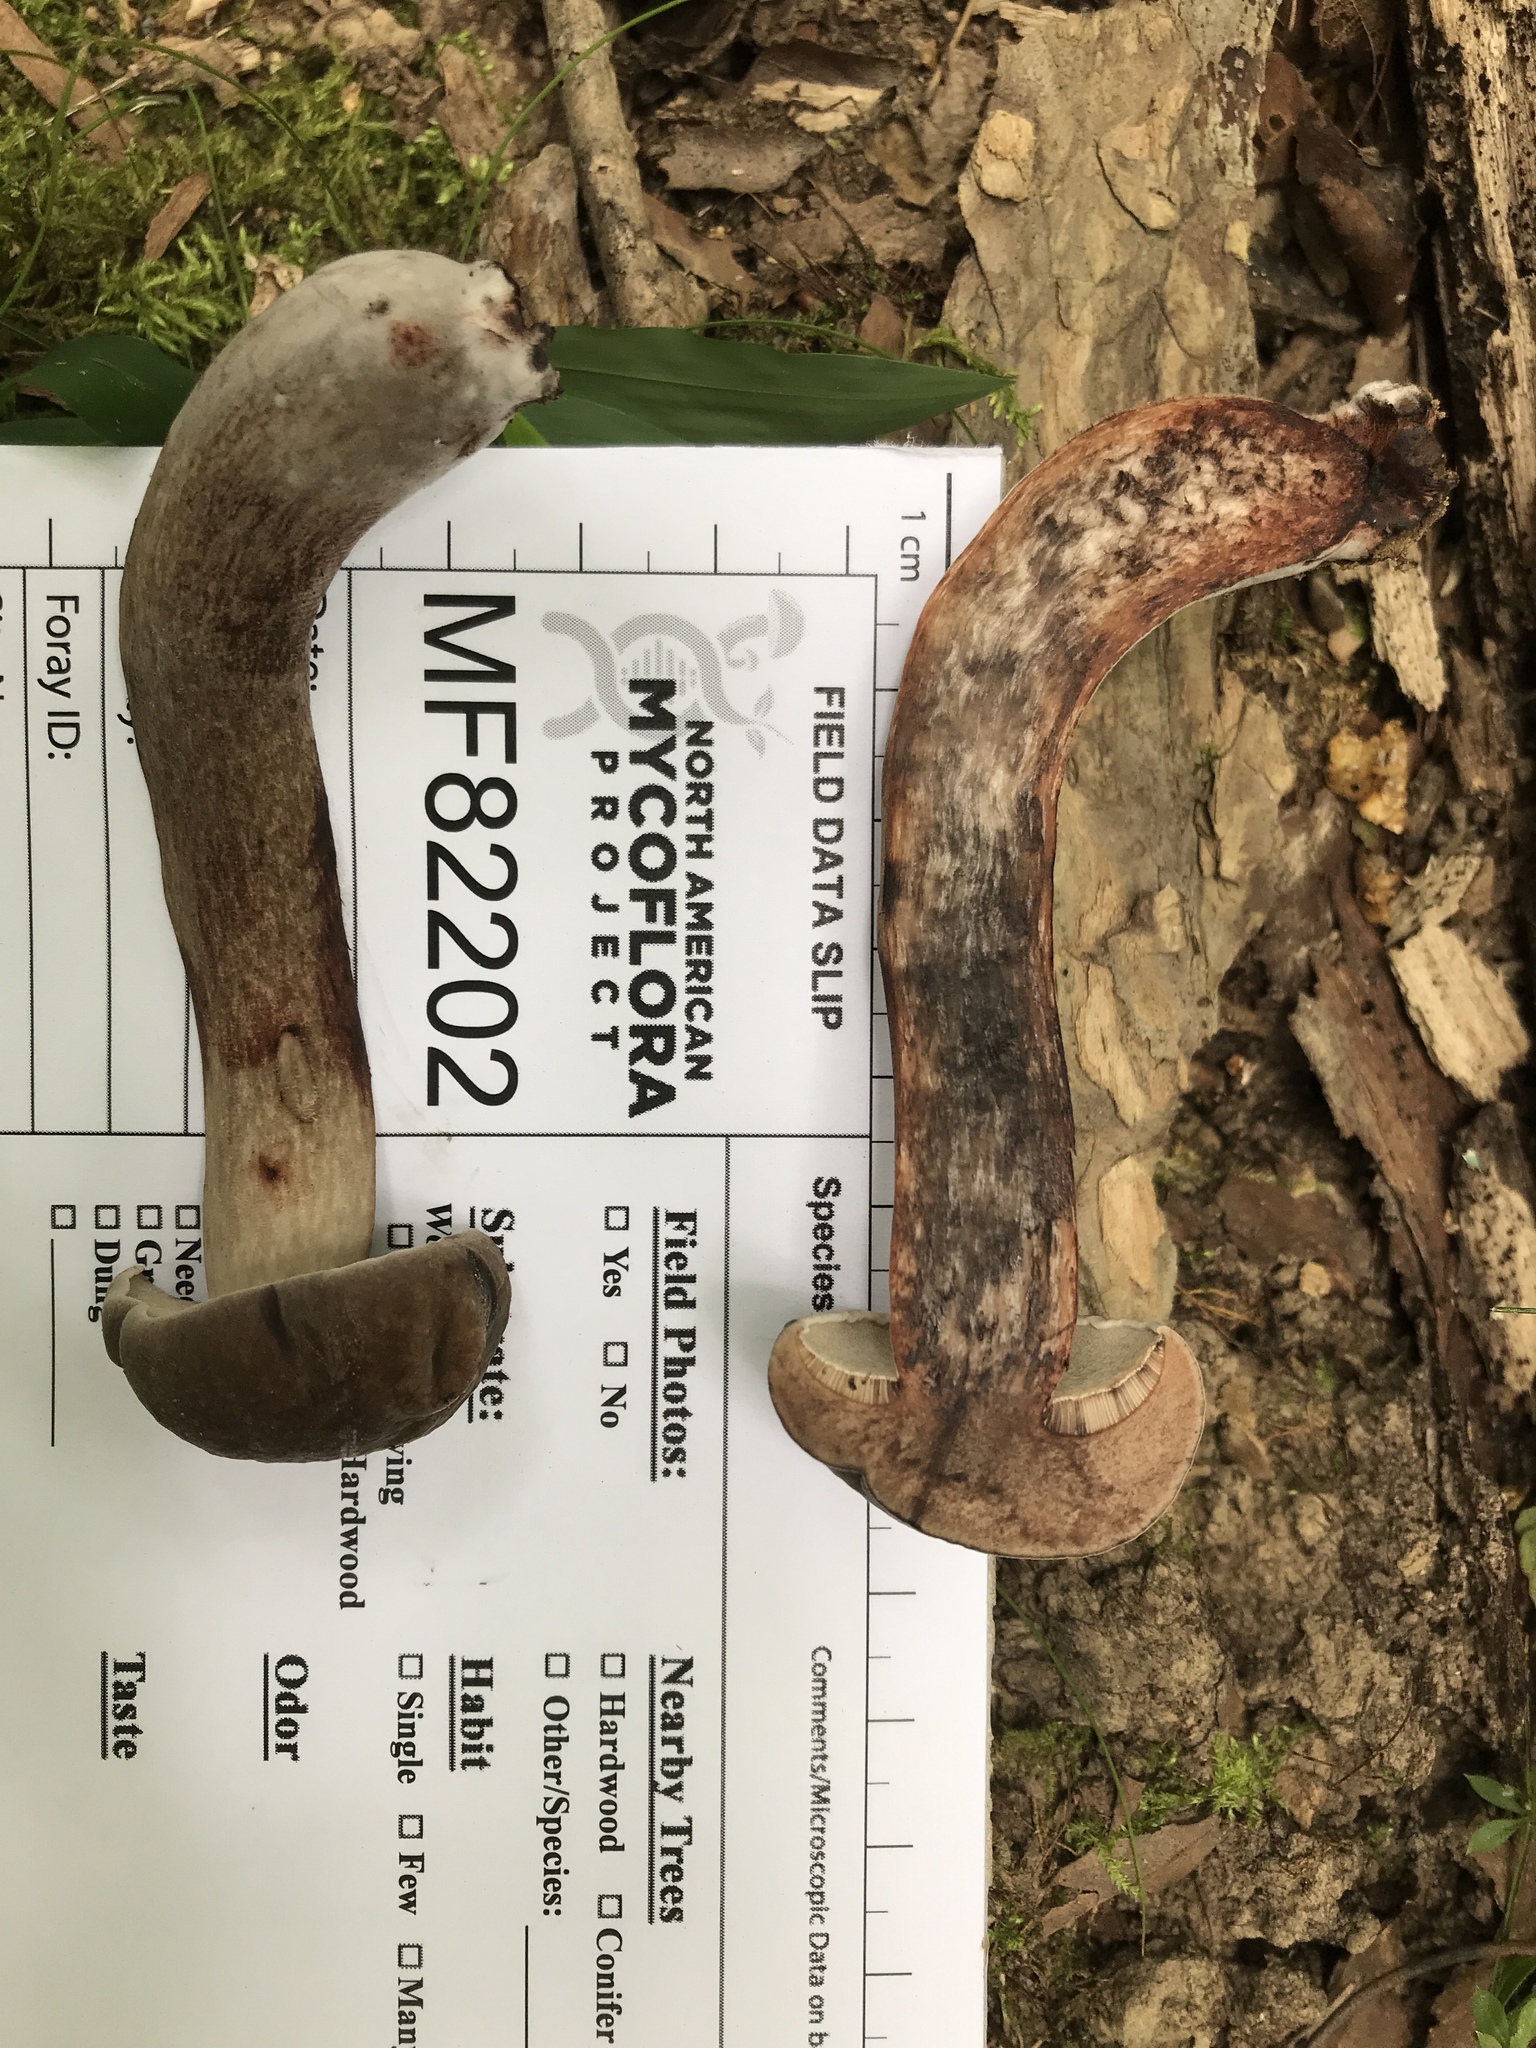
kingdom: Fungi
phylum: Basidiomycota
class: Agaricomycetes
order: Boletales
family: Boletaceae
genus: Tylopilus
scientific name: Tylopilus alboater
